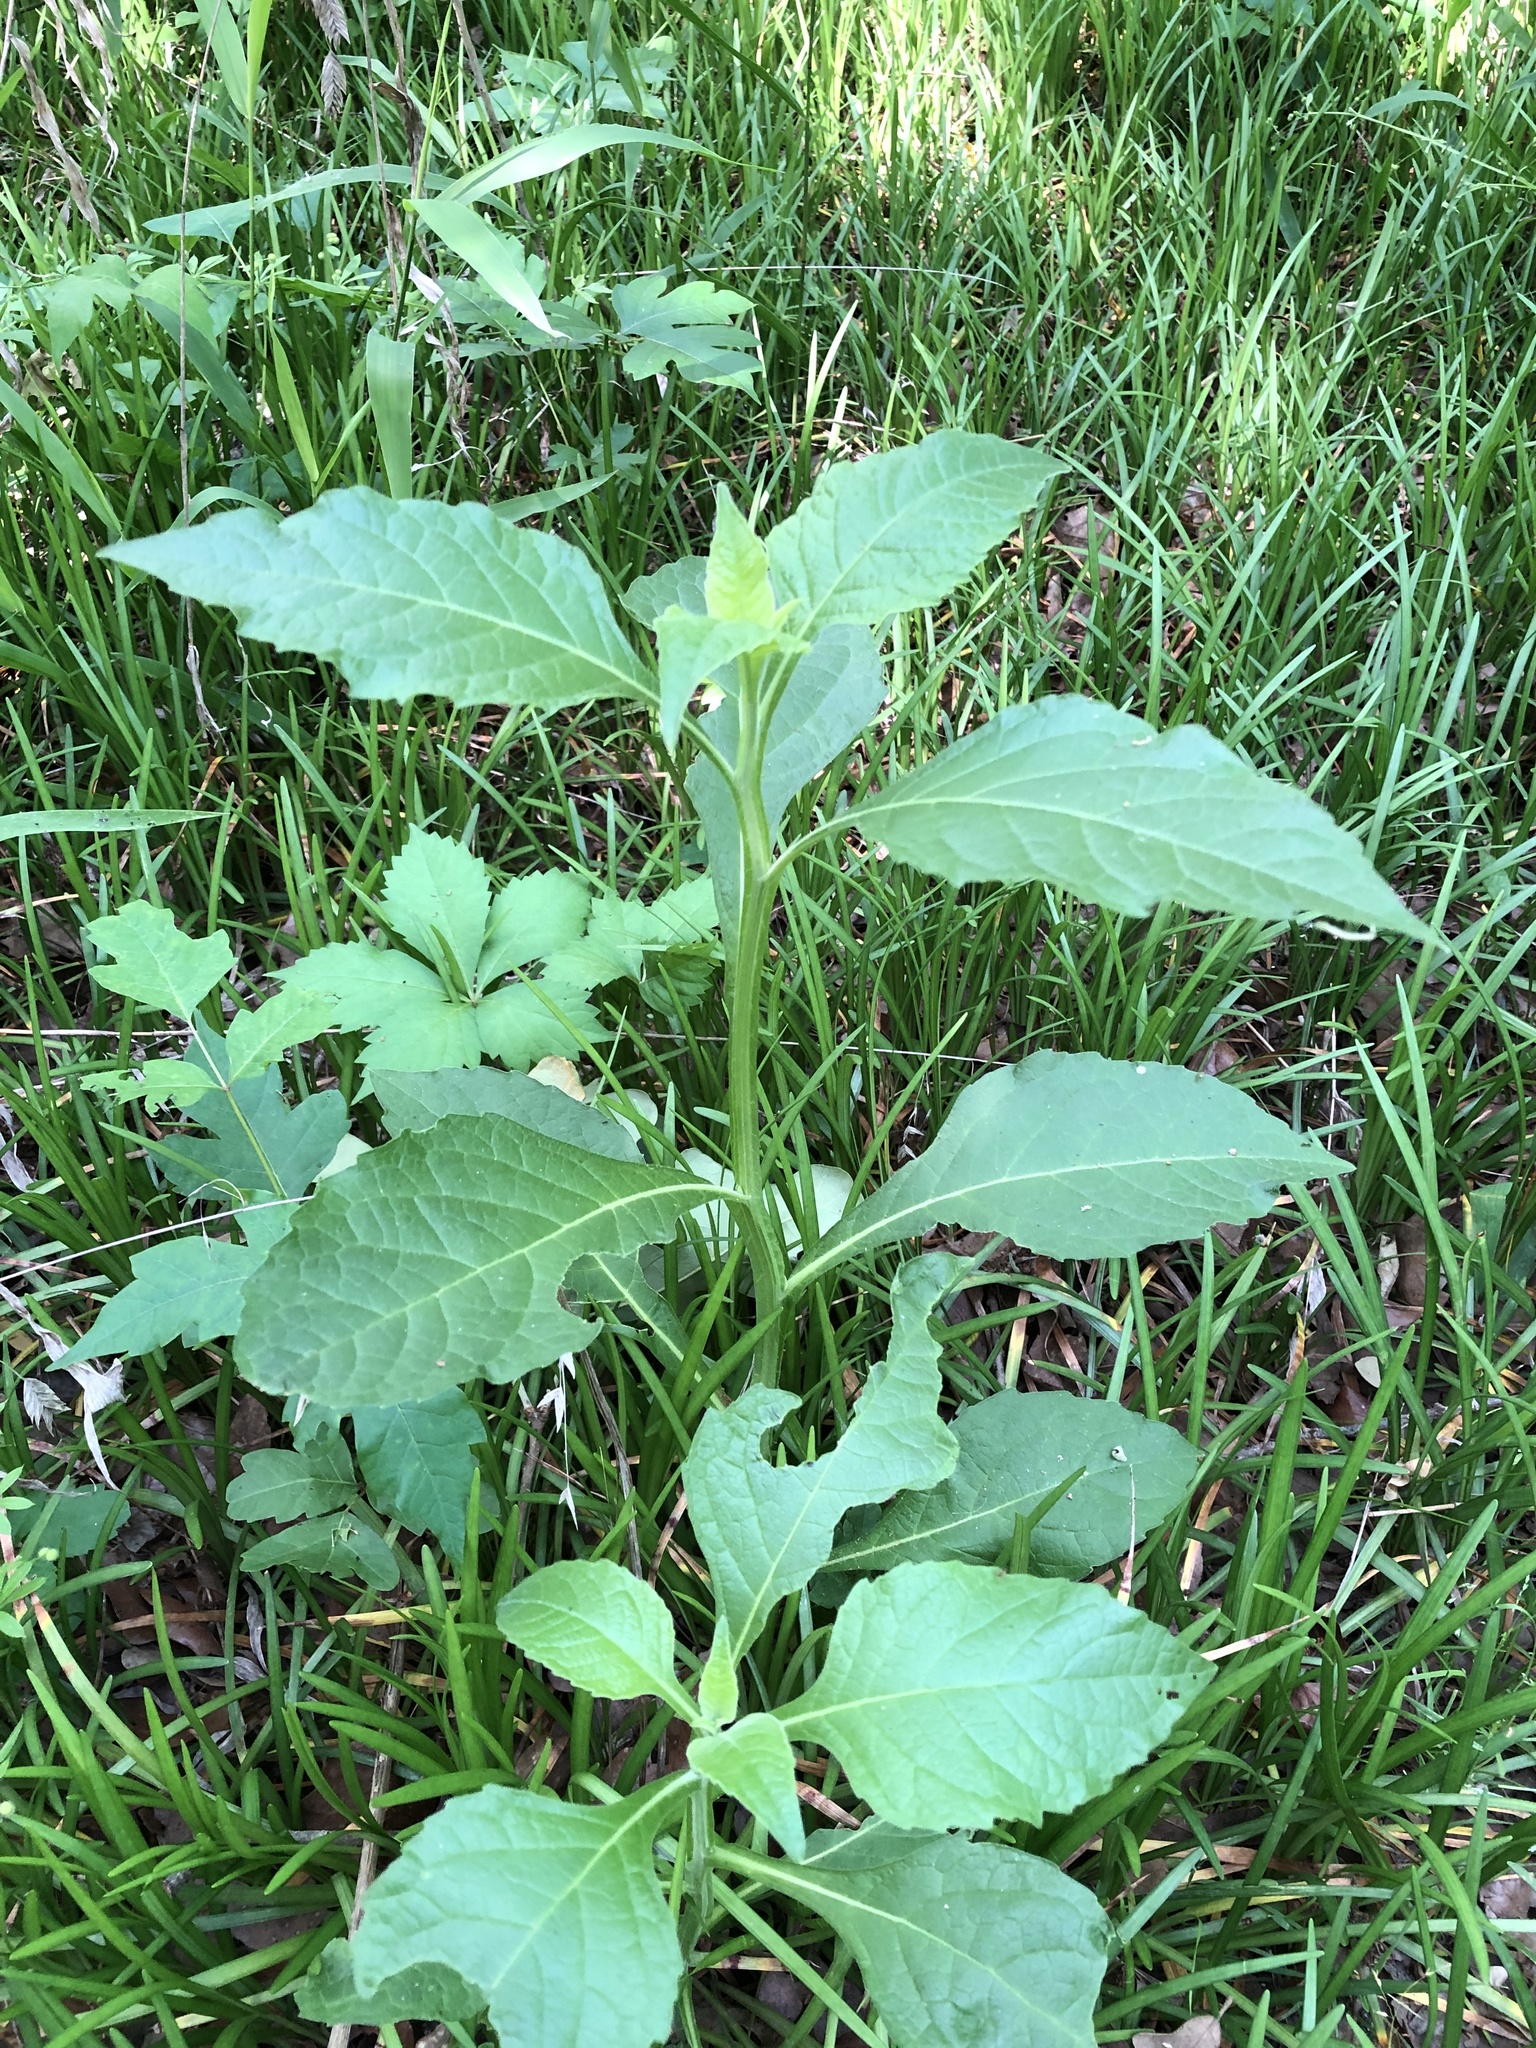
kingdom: Plantae
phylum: Tracheophyta
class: Magnoliopsida
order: Asterales
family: Asteraceae
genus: Verbesina
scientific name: Verbesina virginica
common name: Frostweed
